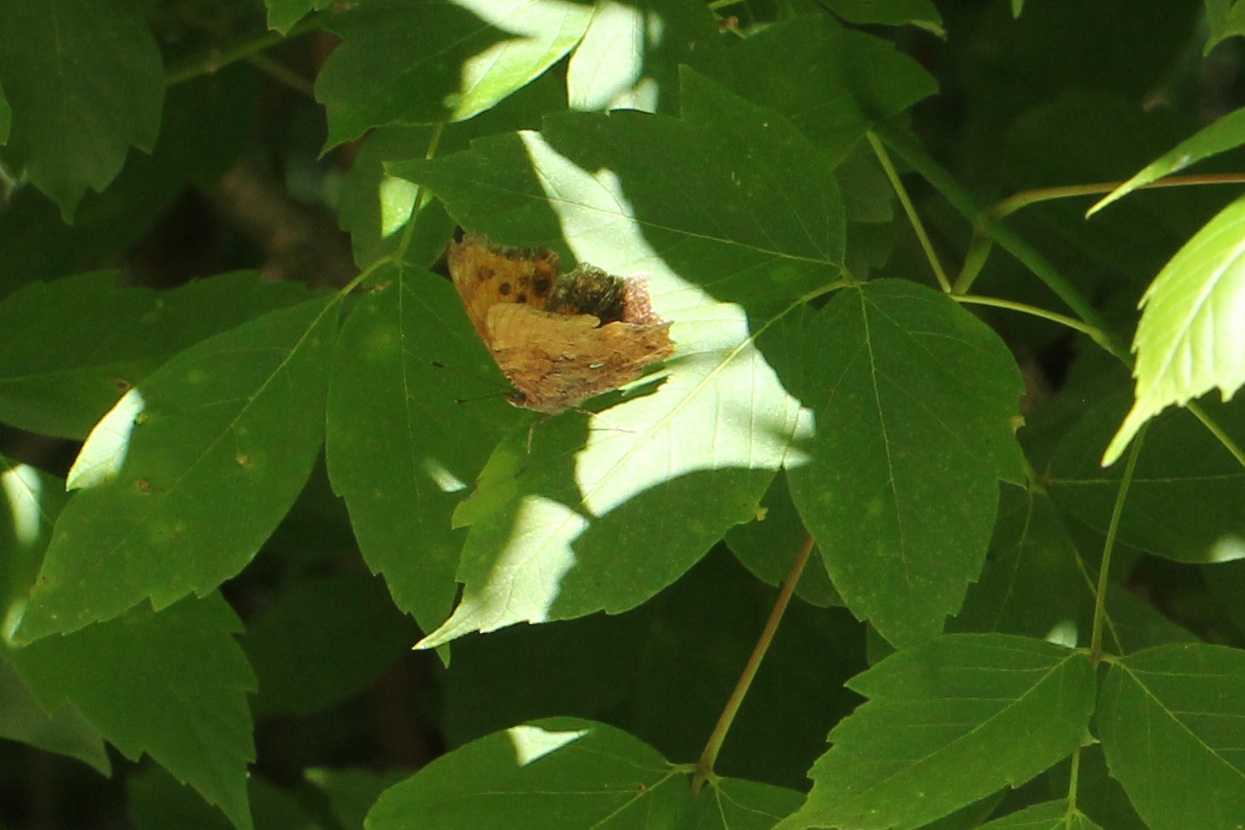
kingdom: Animalia
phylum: Arthropoda
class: Insecta
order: Lepidoptera
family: Nymphalidae
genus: Polygonia
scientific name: Polygonia comma
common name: Eastern comma
